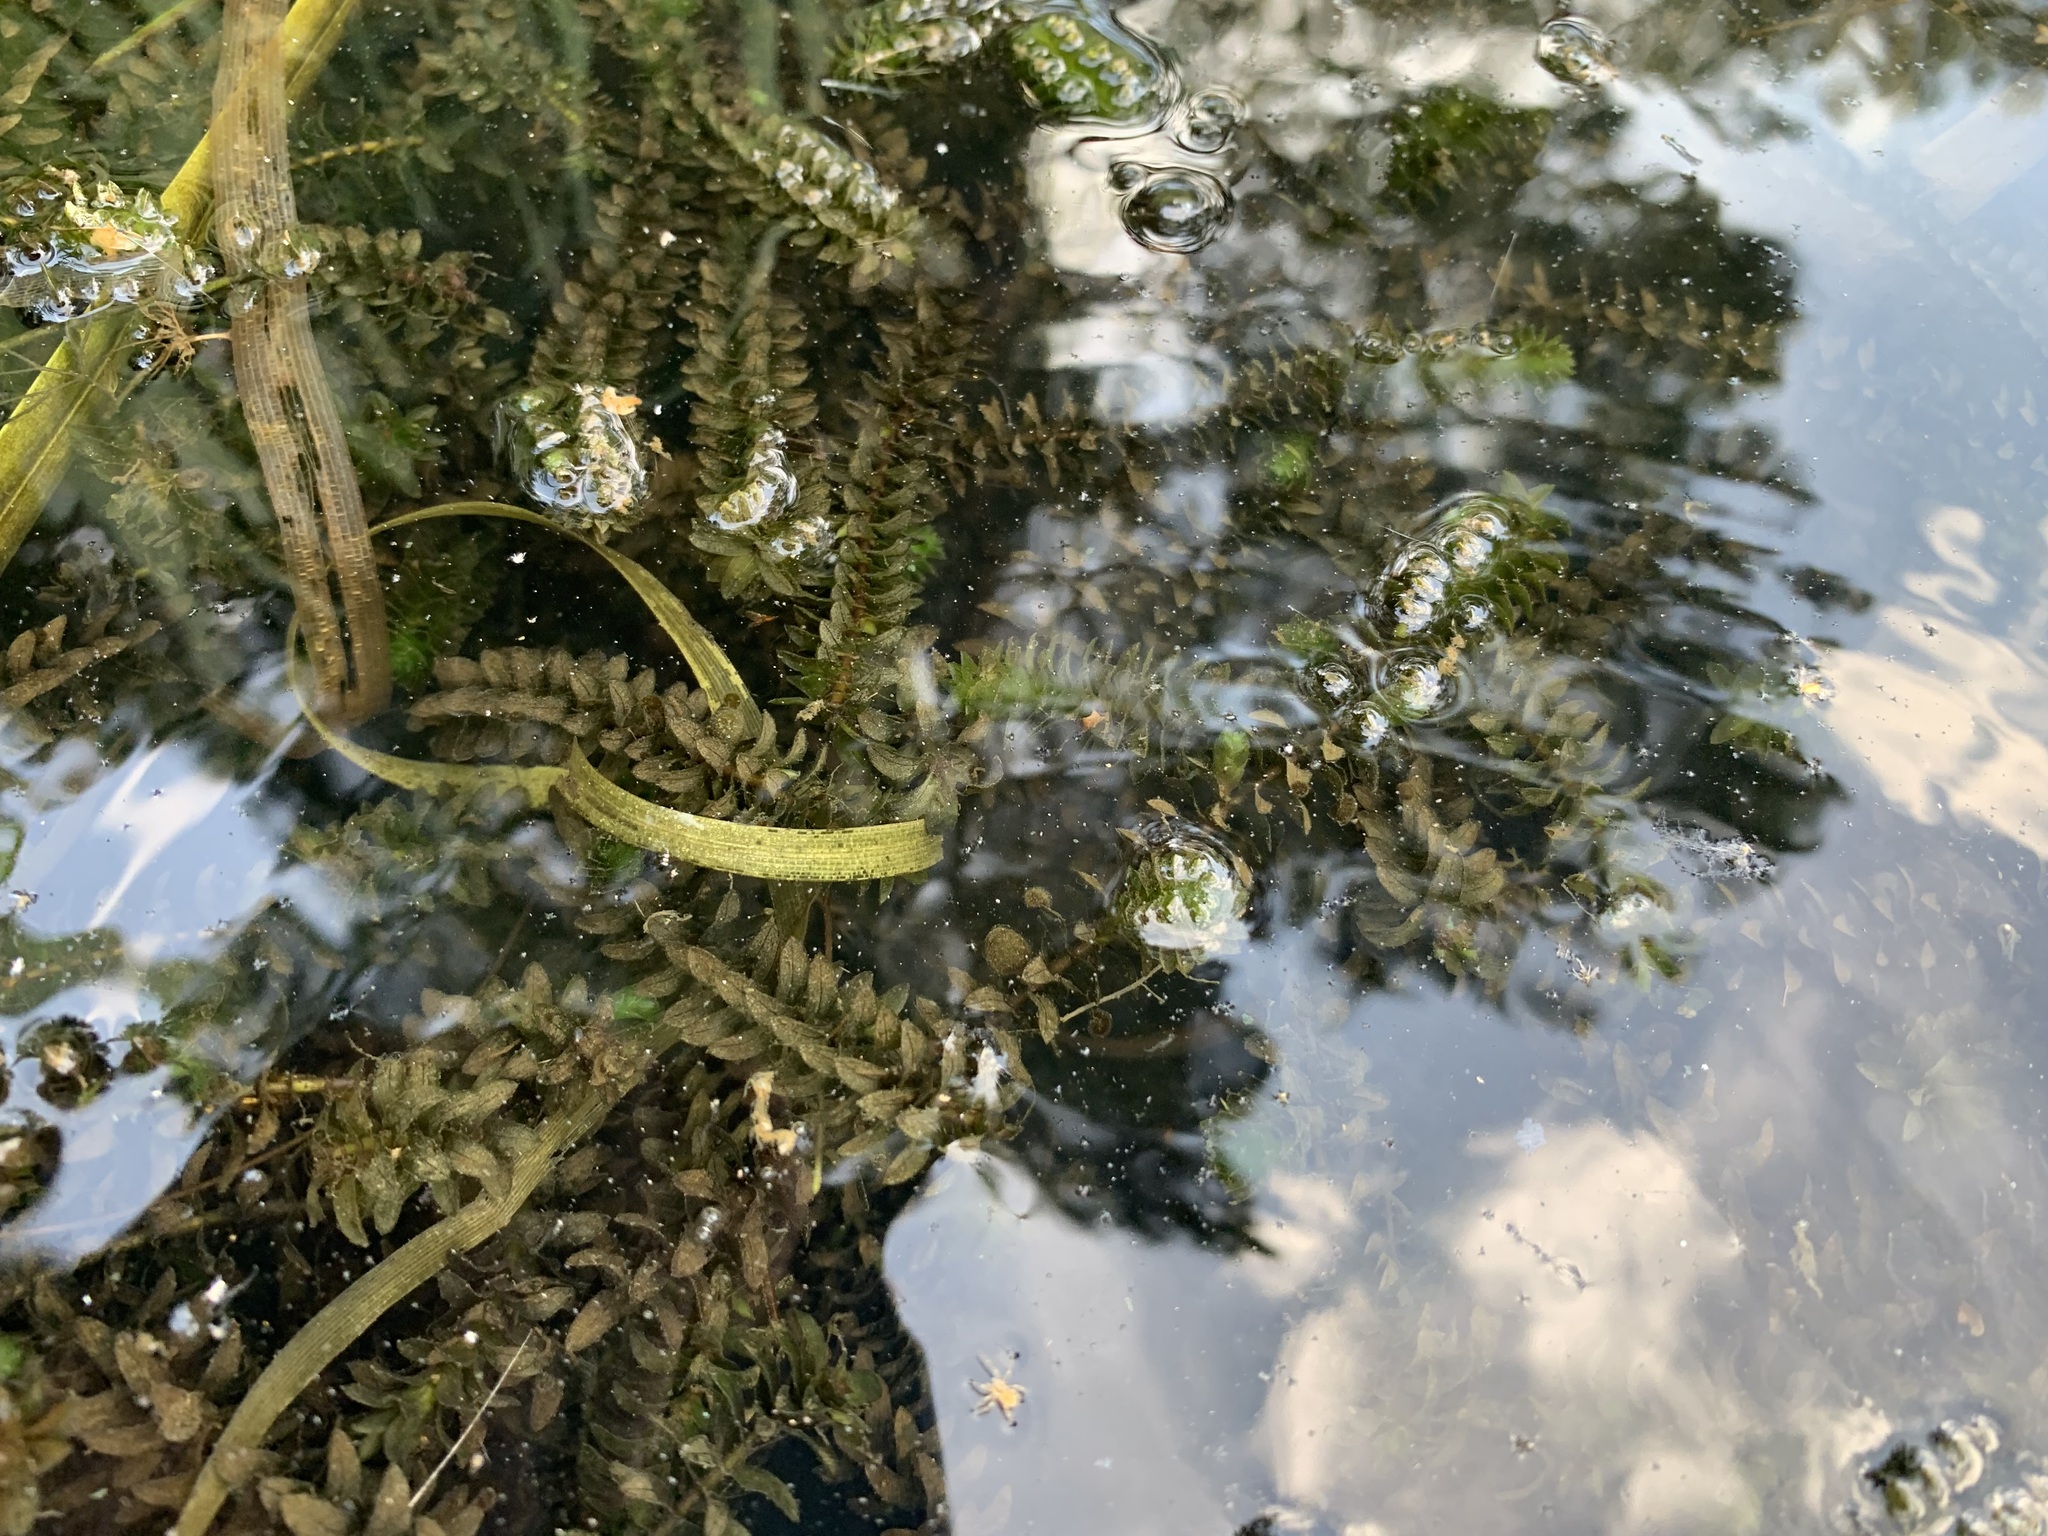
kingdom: Plantae
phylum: Tracheophyta
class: Liliopsida
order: Alismatales
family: Hydrocharitaceae
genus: Elodea
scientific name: Elodea canadensis
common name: Canadian waterweed
